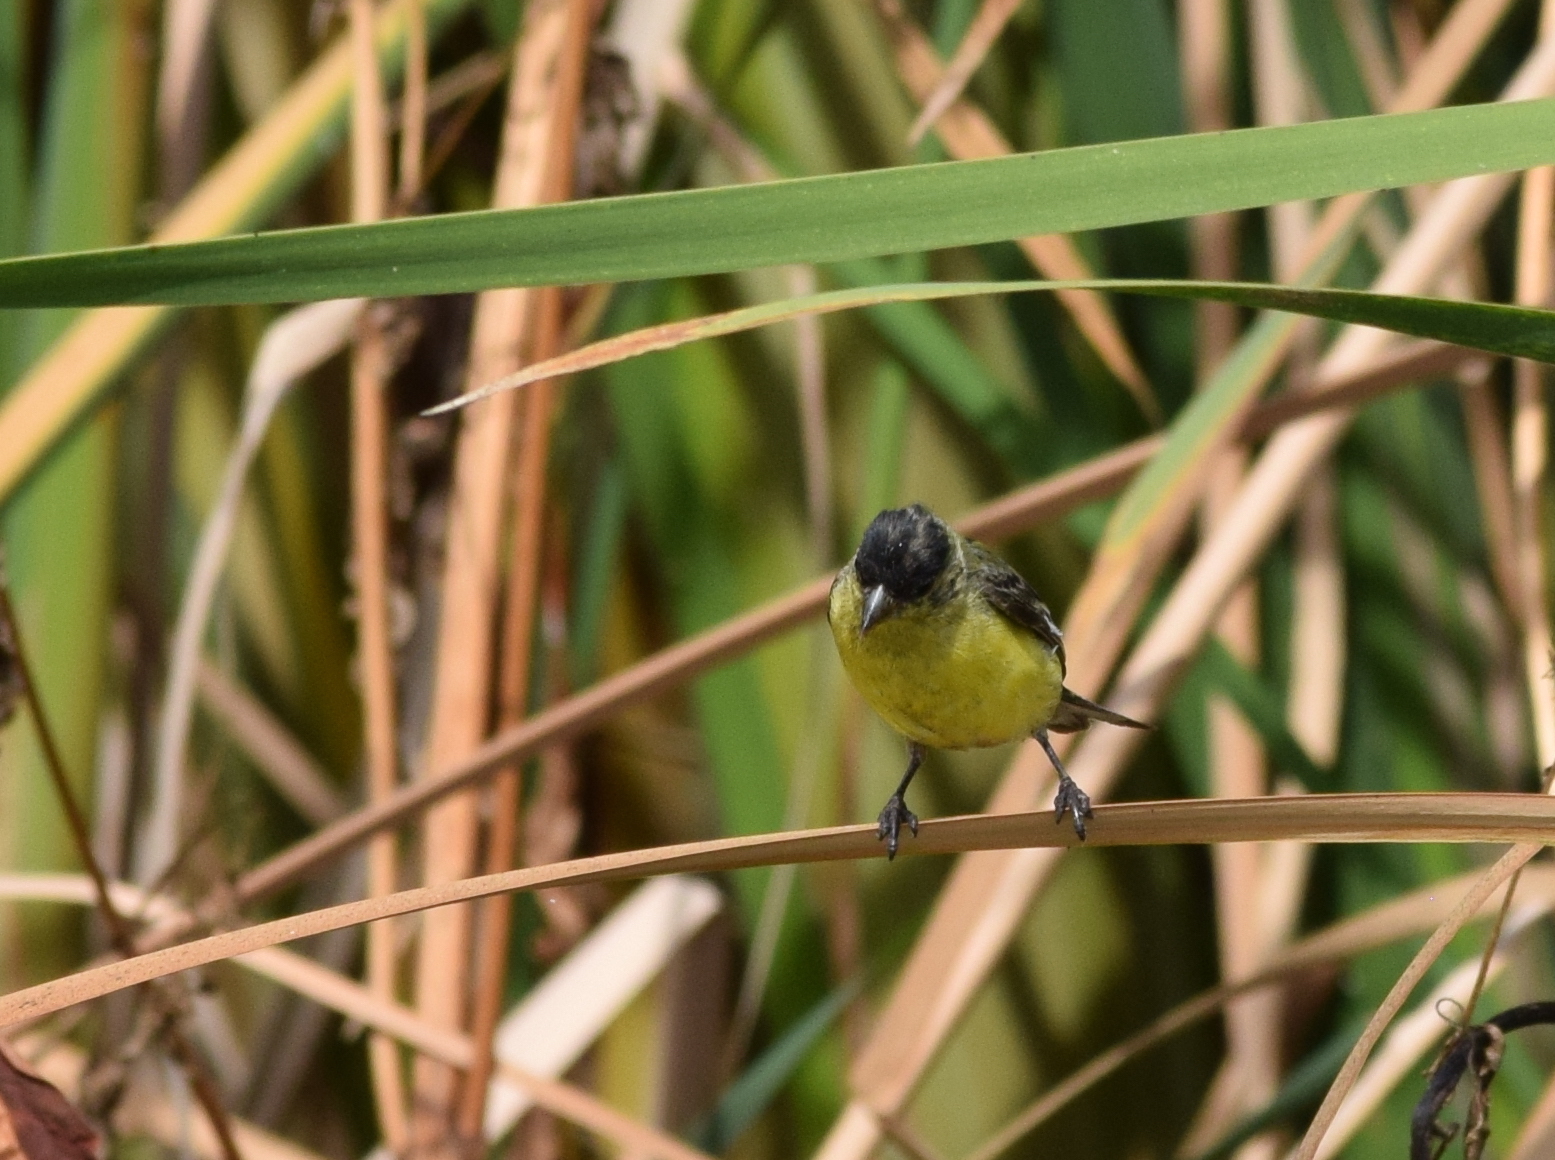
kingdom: Animalia
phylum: Chordata
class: Aves
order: Passeriformes
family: Fringillidae
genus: Spinus
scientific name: Spinus psaltria
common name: Lesser goldfinch
